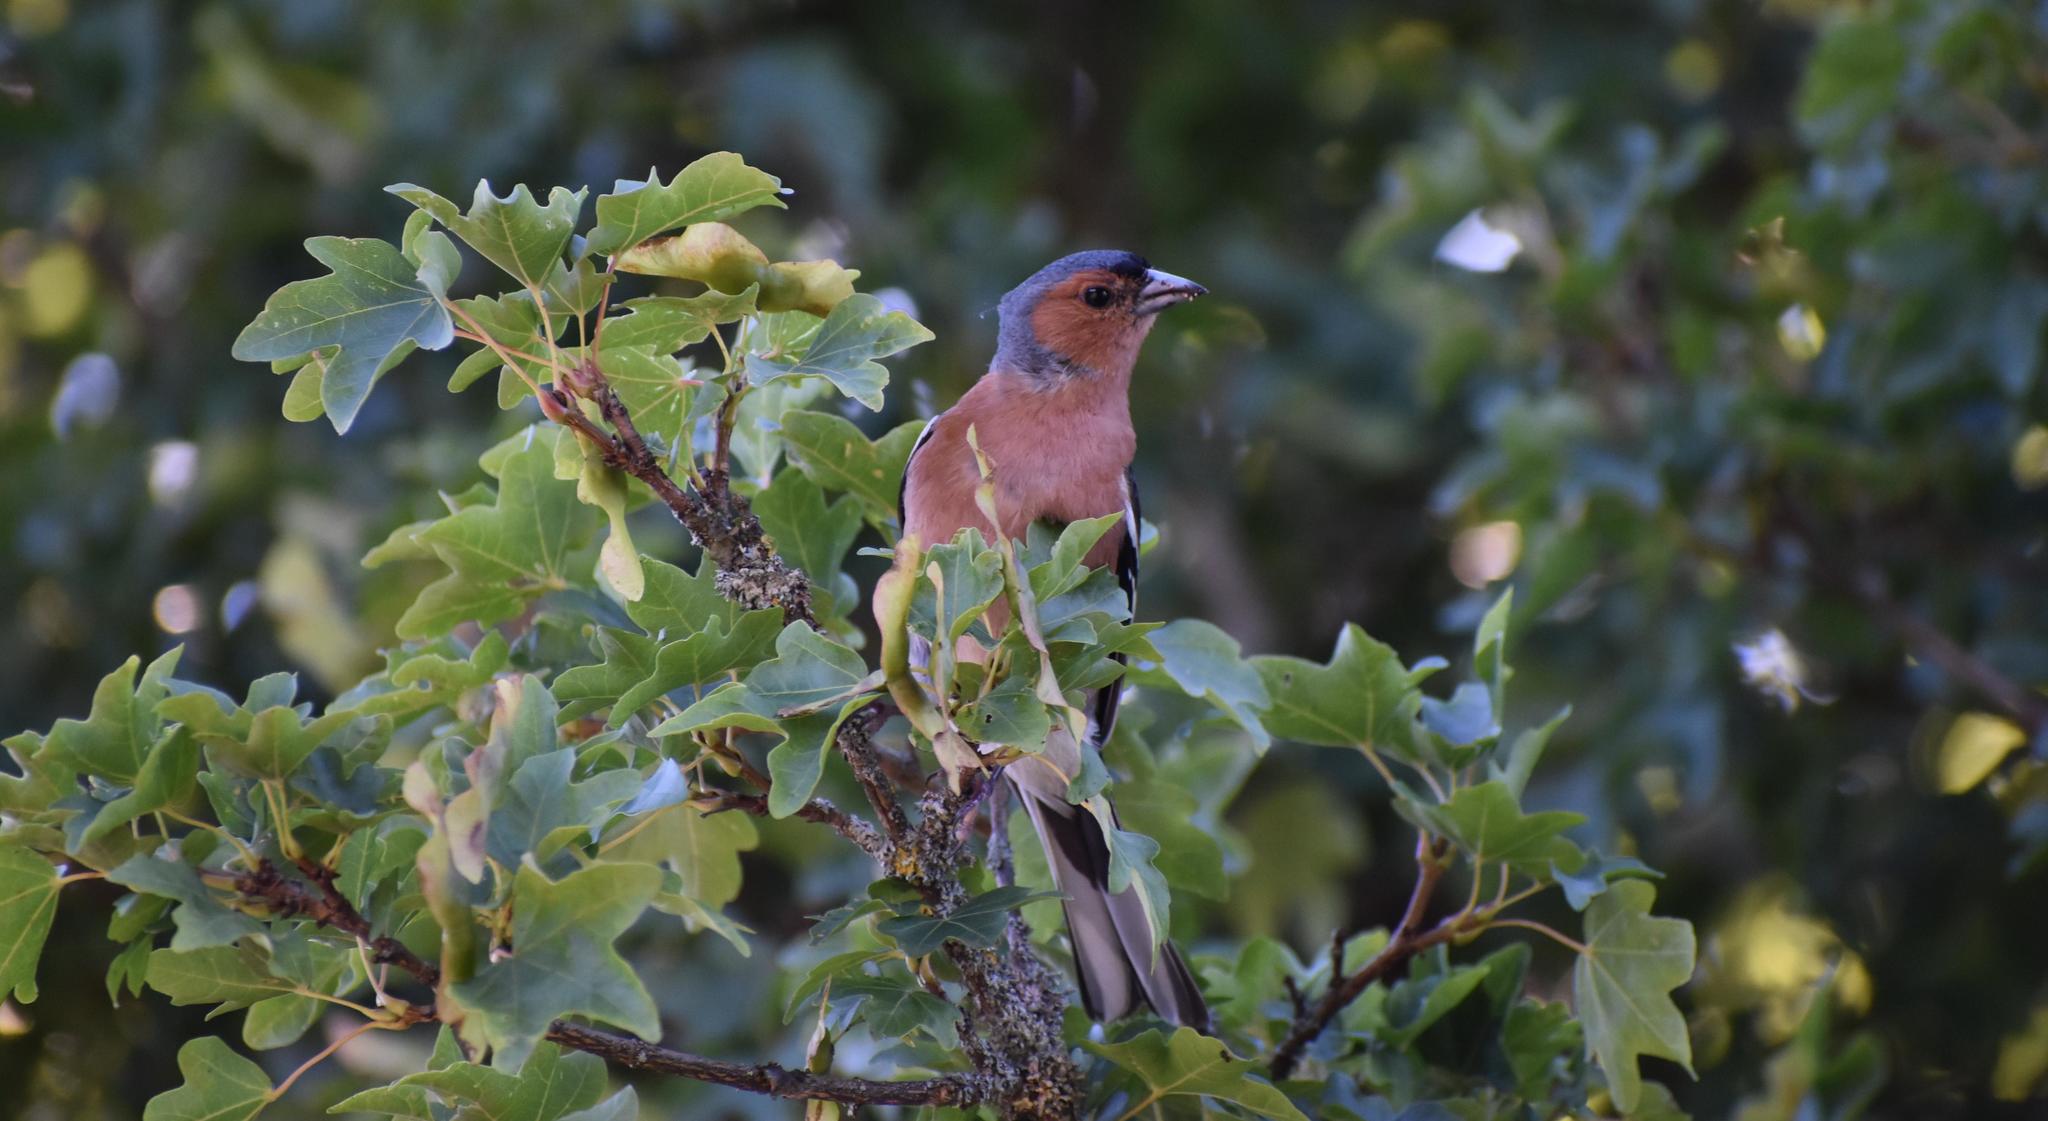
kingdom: Animalia
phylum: Chordata
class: Aves
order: Passeriformes
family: Fringillidae
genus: Fringilla
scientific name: Fringilla coelebs
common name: Common chaffinch
